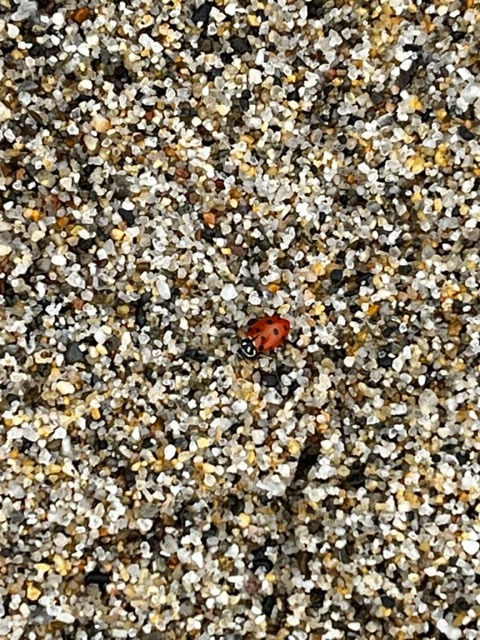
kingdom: Animalia
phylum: Arthropoda
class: Insecta
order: Coleoptera
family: Coccinellidae
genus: Hippodamia
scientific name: Hippodamia convergens
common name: Convergent lady beetle
